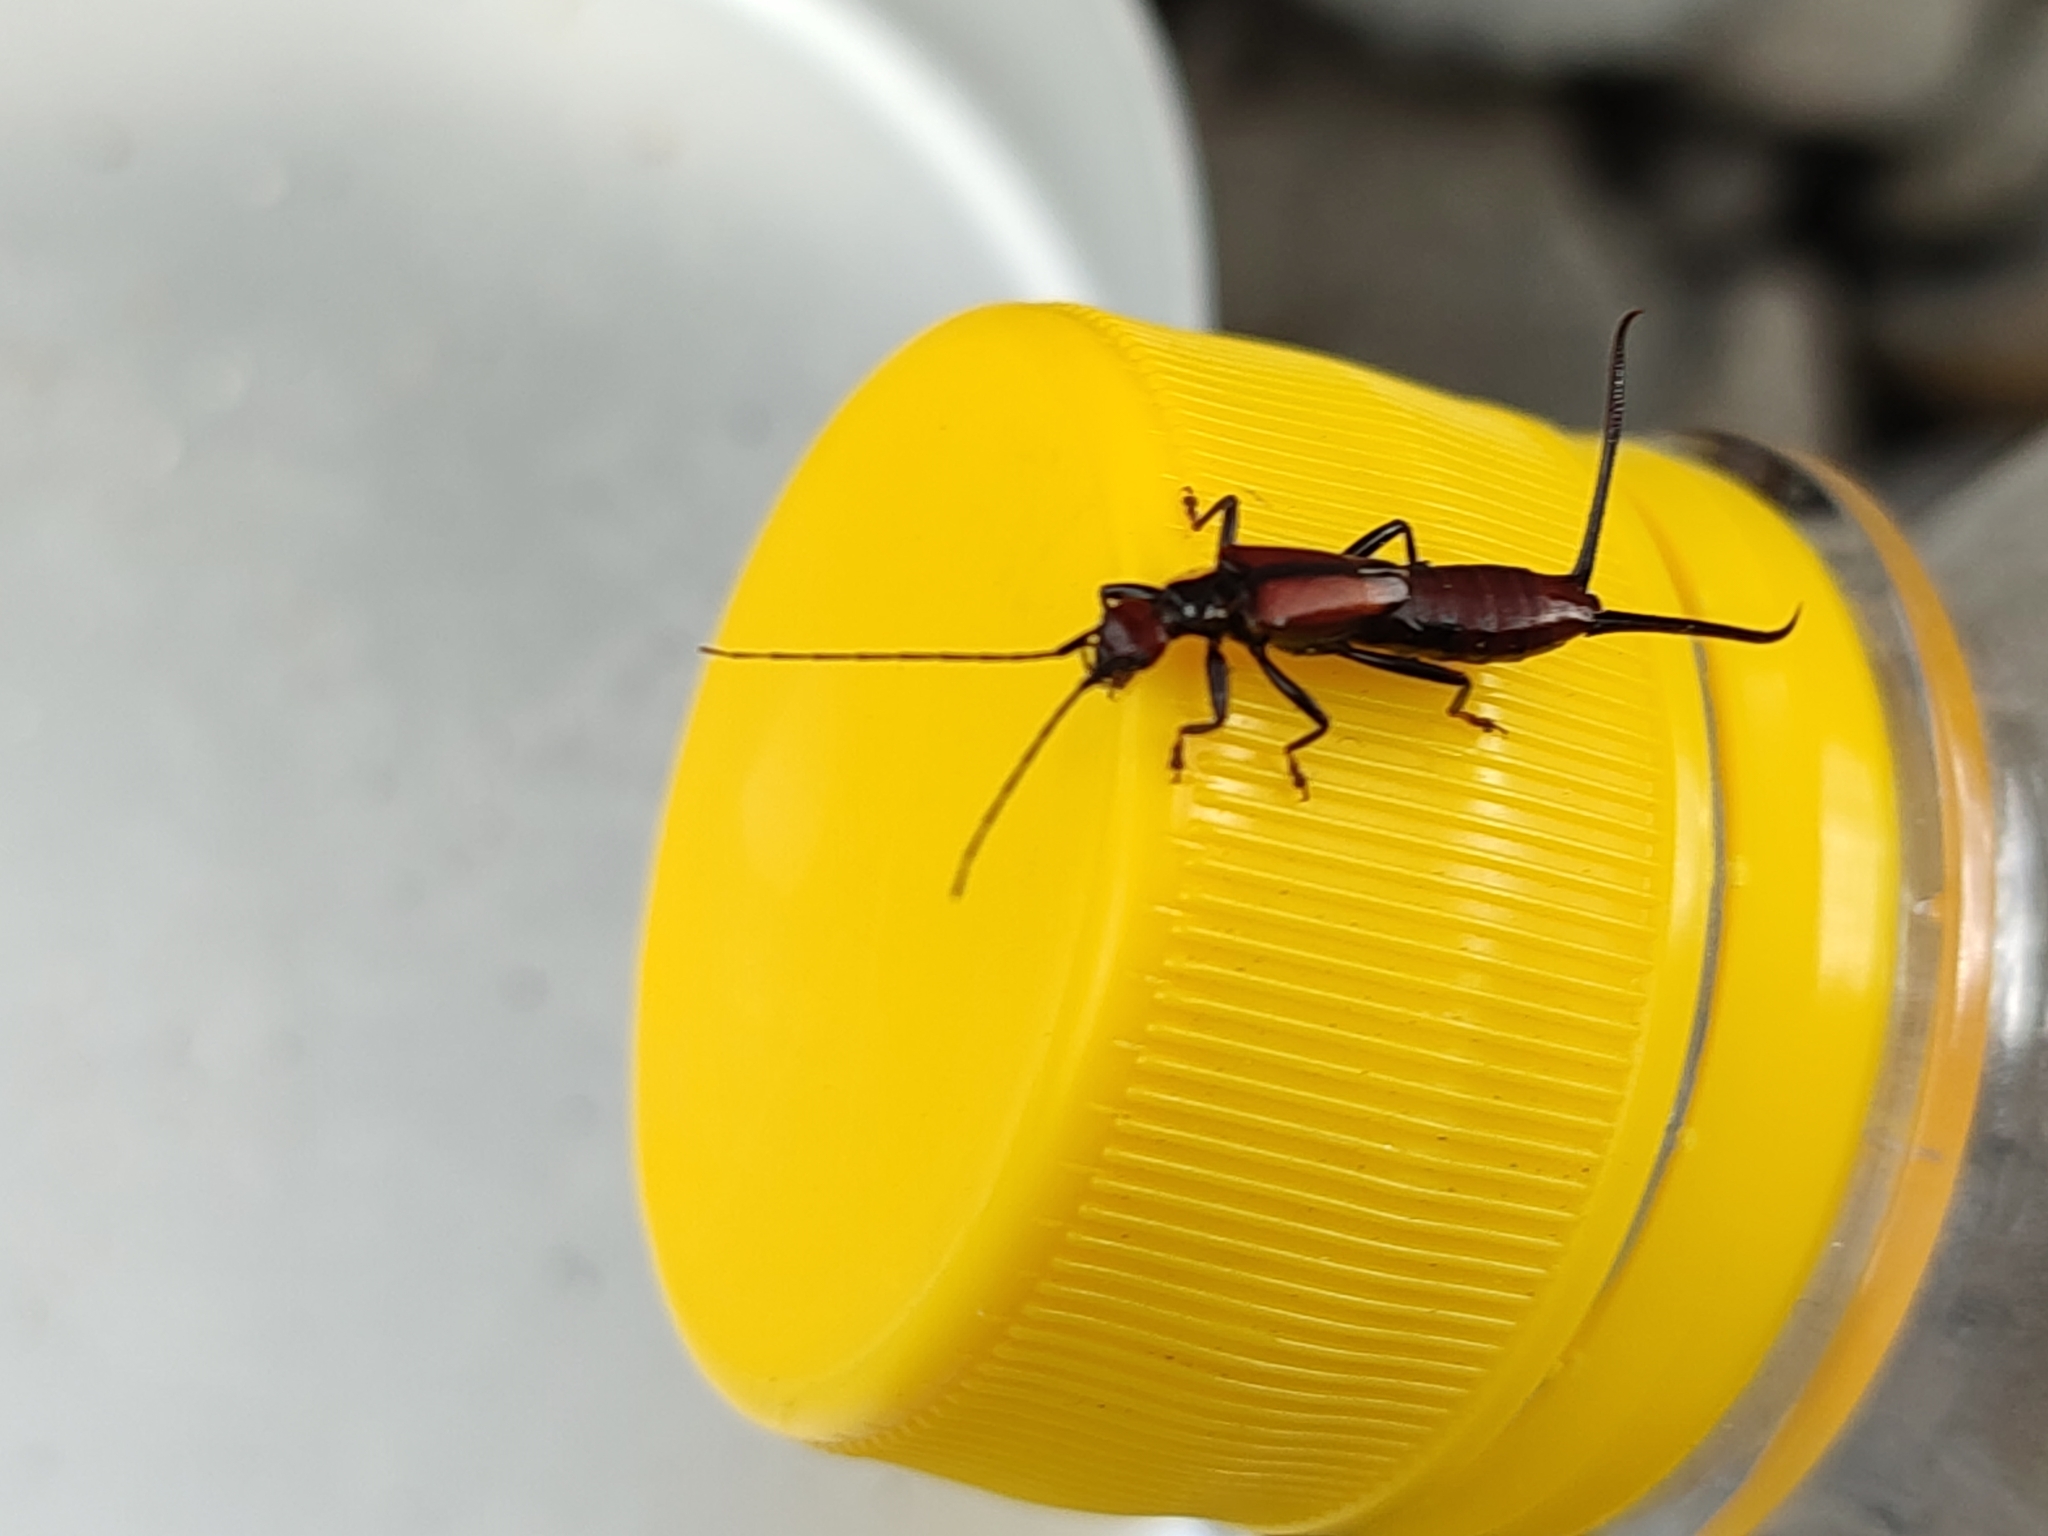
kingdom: Animalia
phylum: Arthropoda
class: Insecta
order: Dermaptera
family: Forficulidae
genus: Timomenus
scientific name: Timomenus komarovi
